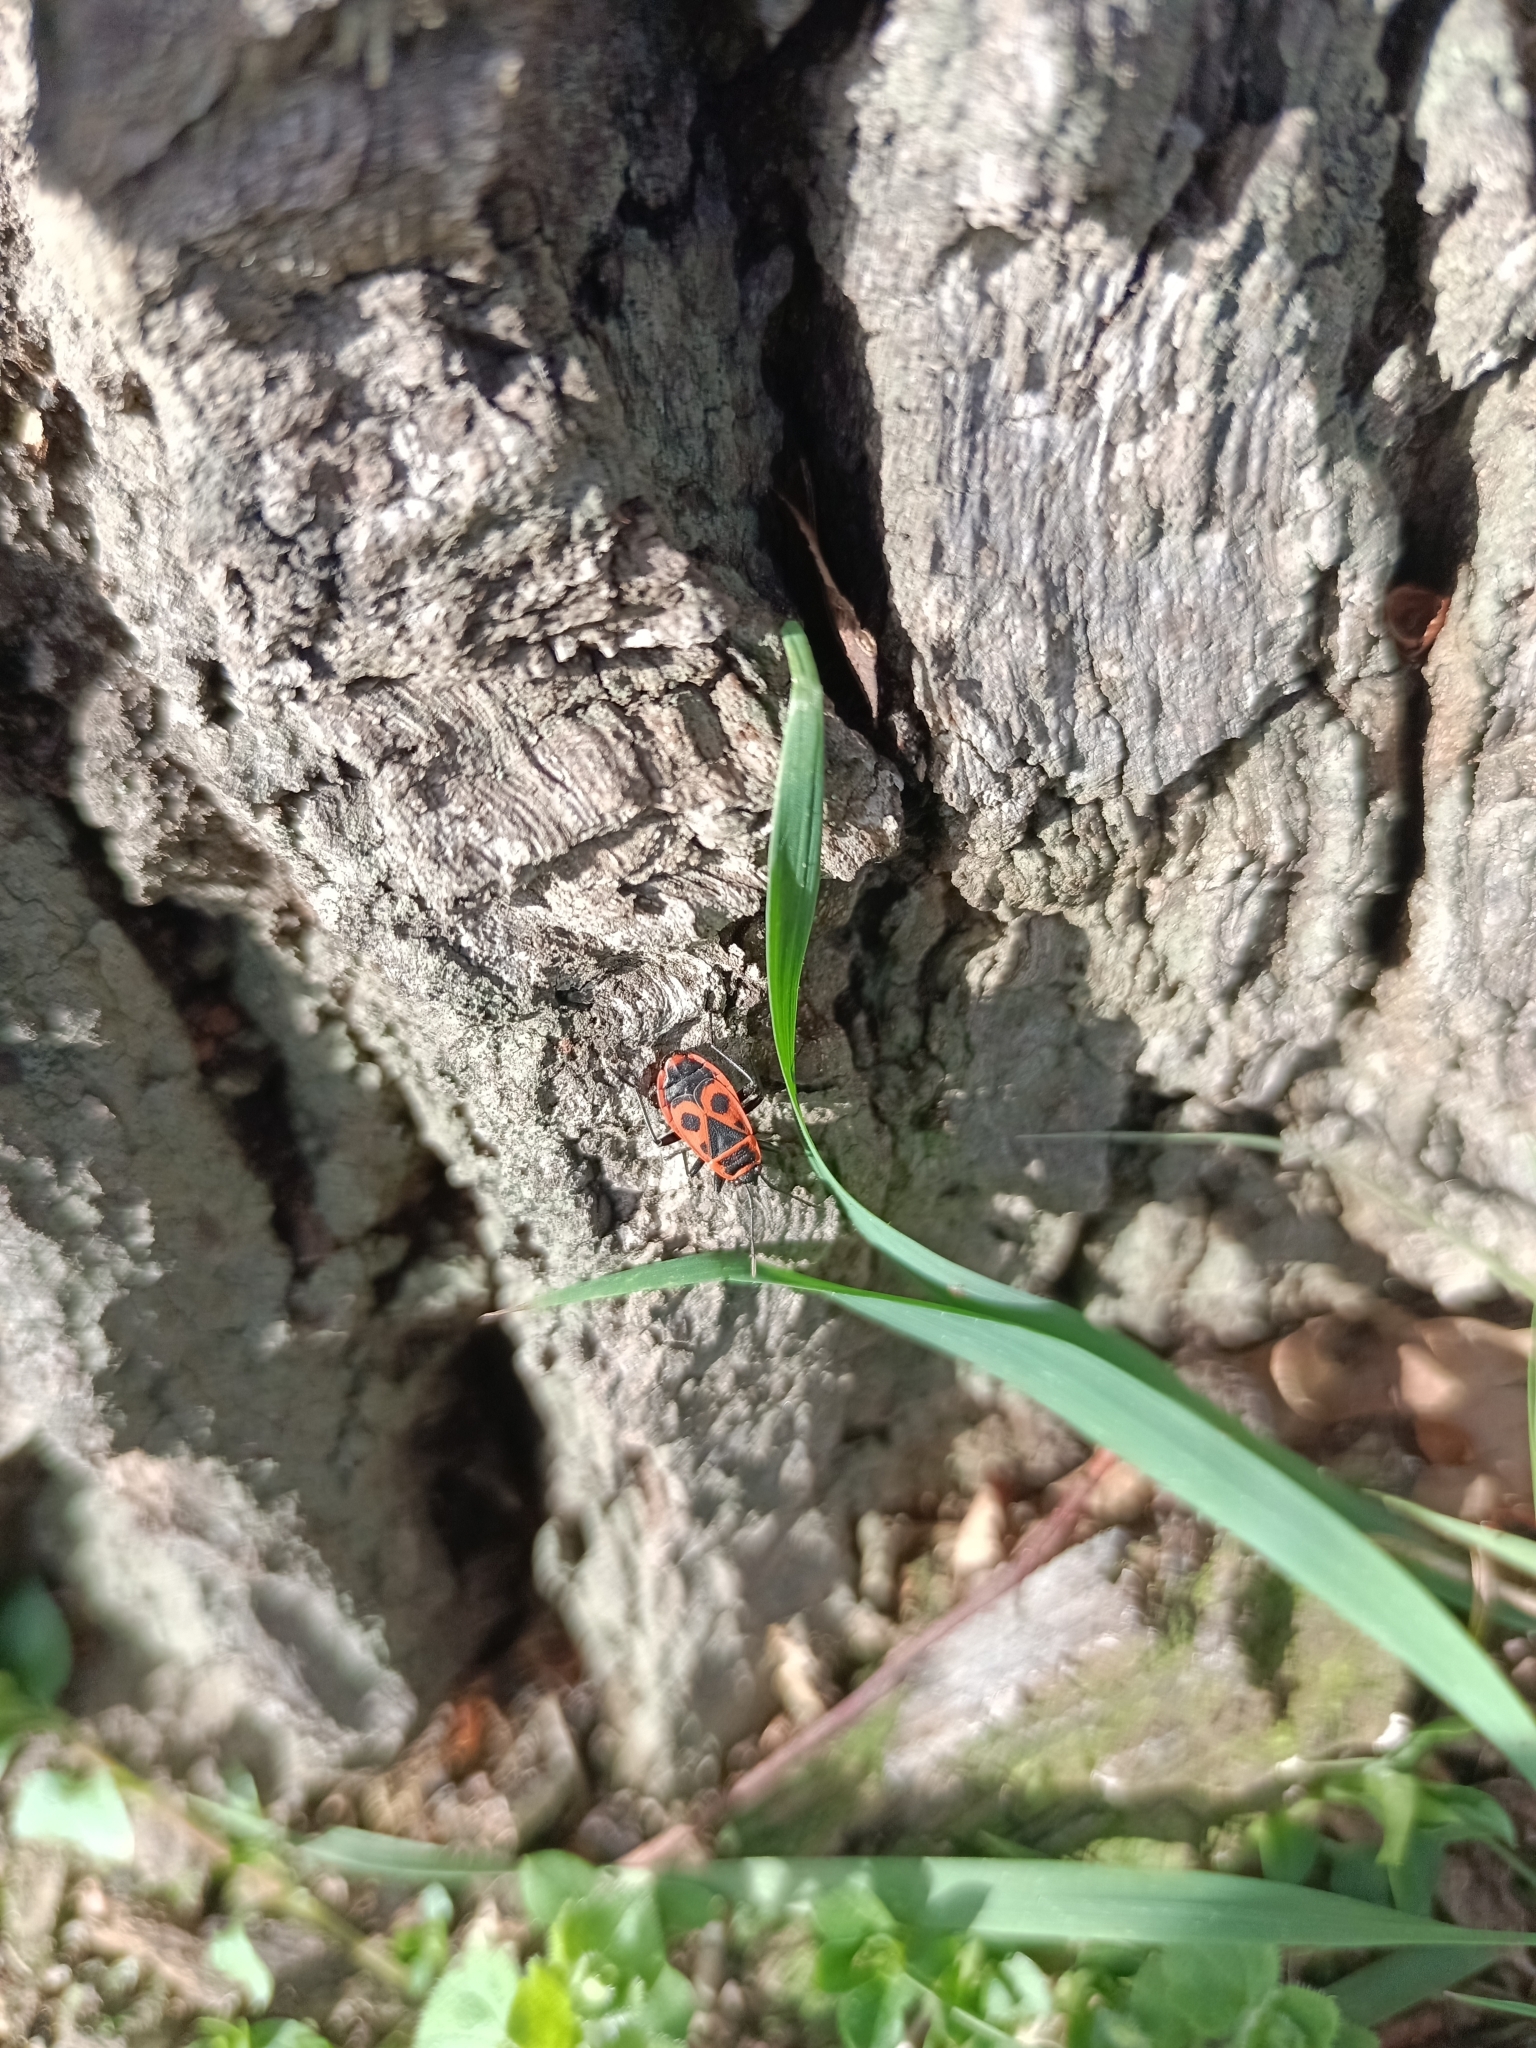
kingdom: Animalia
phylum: Arthropoda
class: Insecta
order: Hemiptera
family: Pyrrhocoridae
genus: Pyrrhocoris
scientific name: Pyrrhocoris apterus
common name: Firebug
